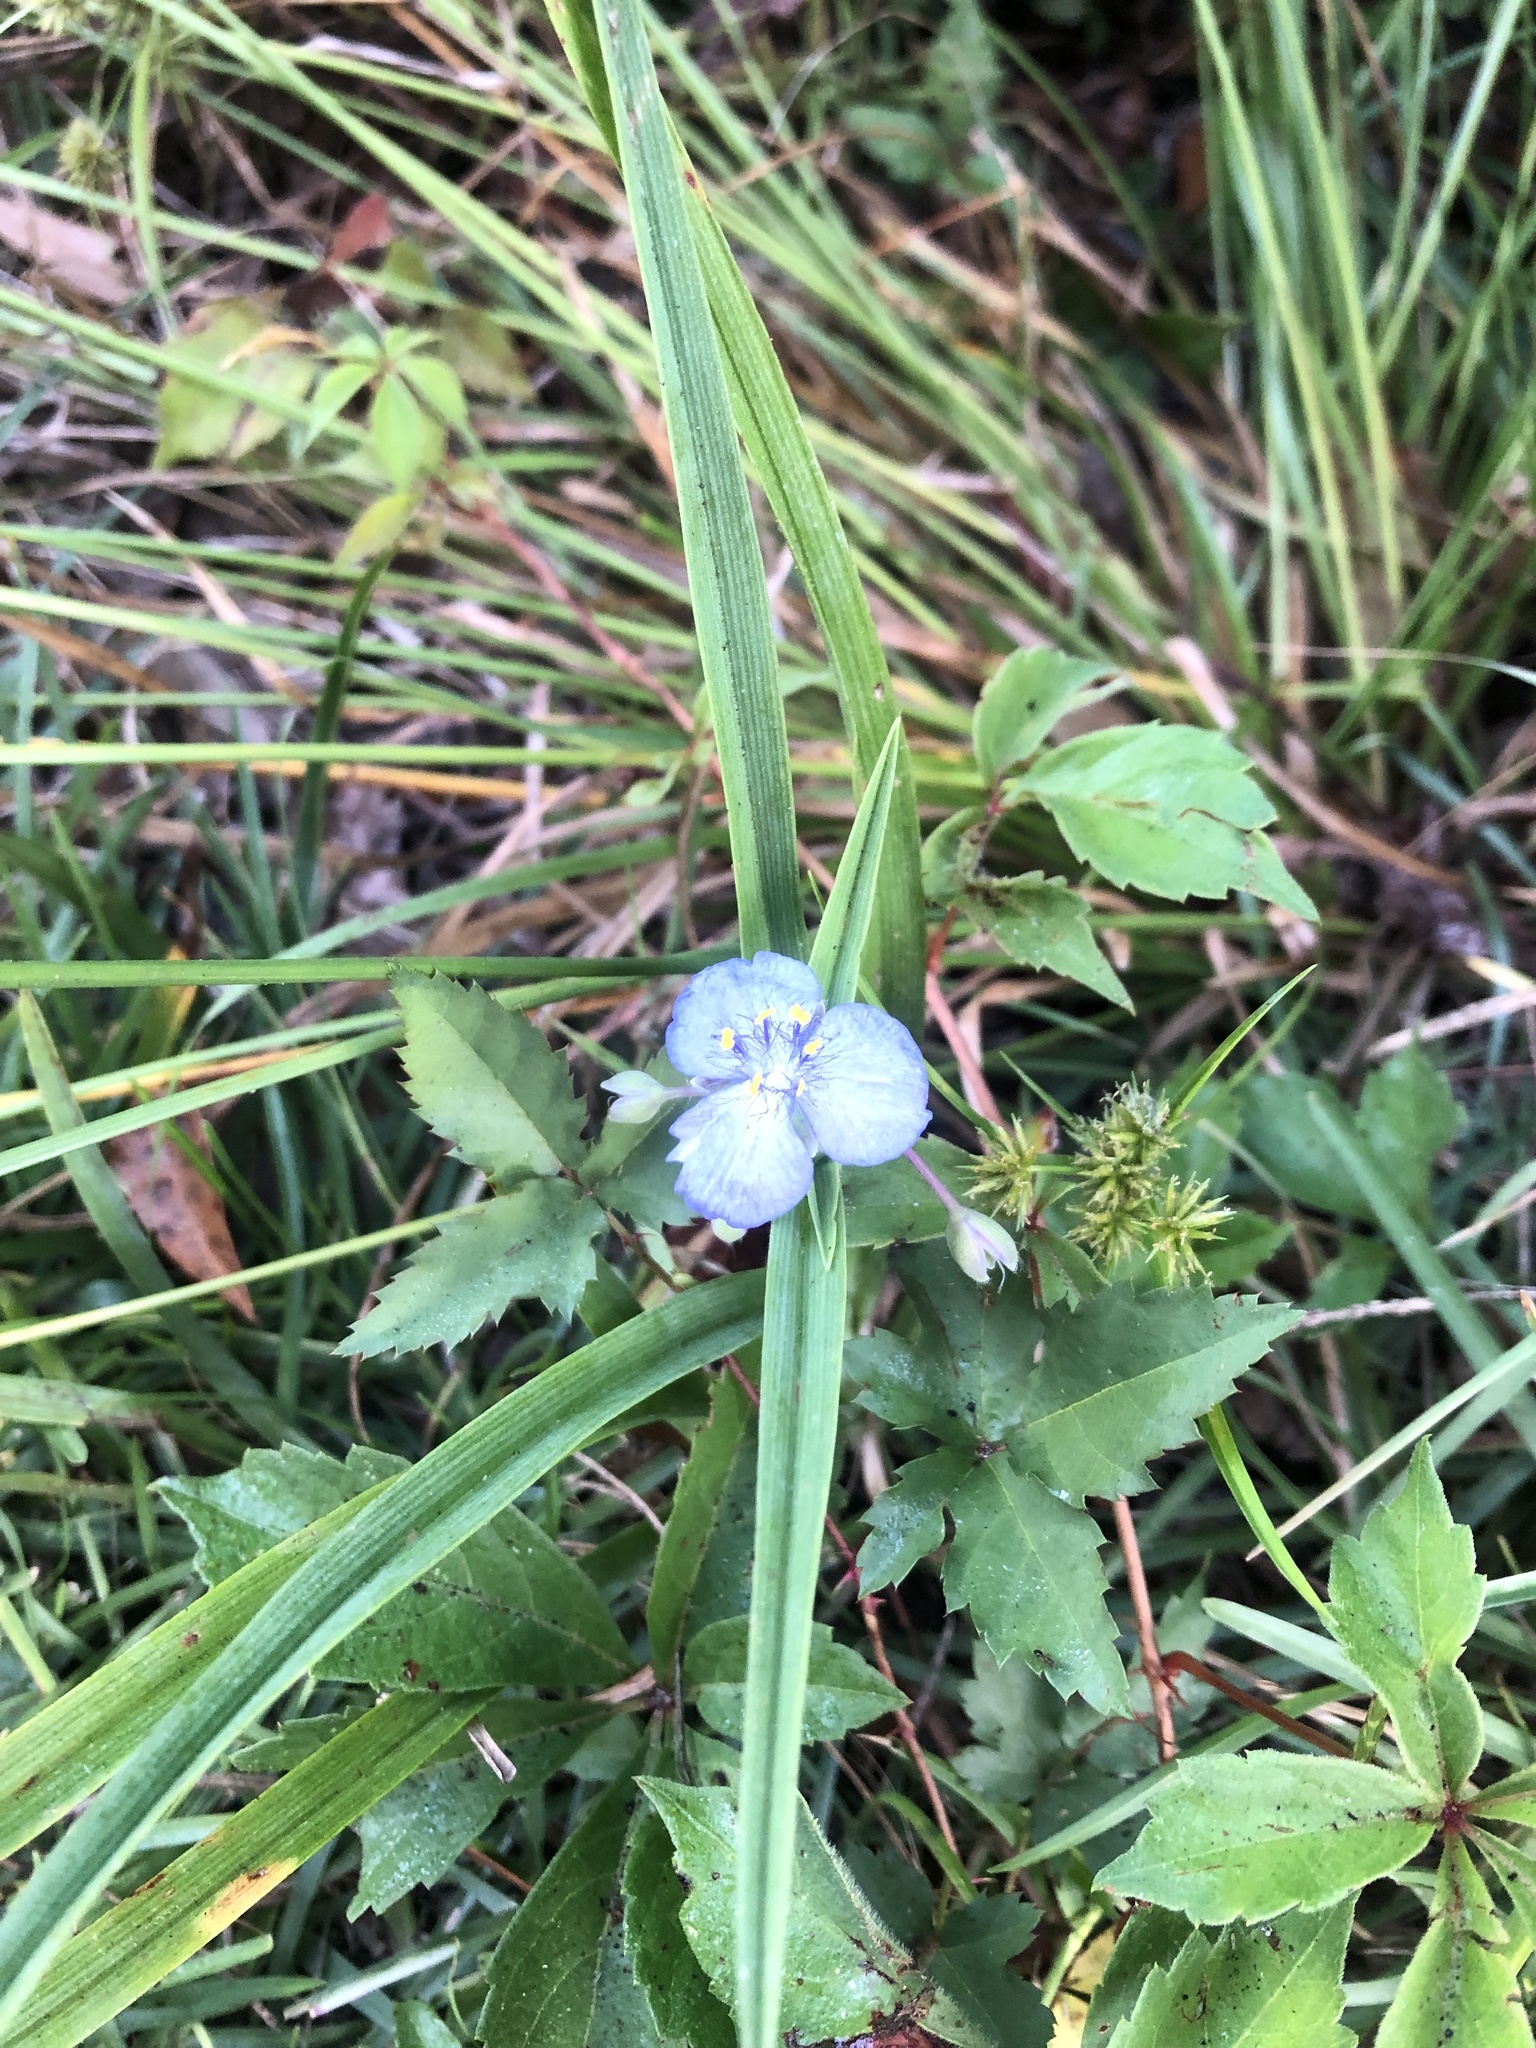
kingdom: Plantae
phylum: Tracheophyta
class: Liliopsida
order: Commelinales
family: Commelinaceae
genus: Commelina
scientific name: Commelina virginica
